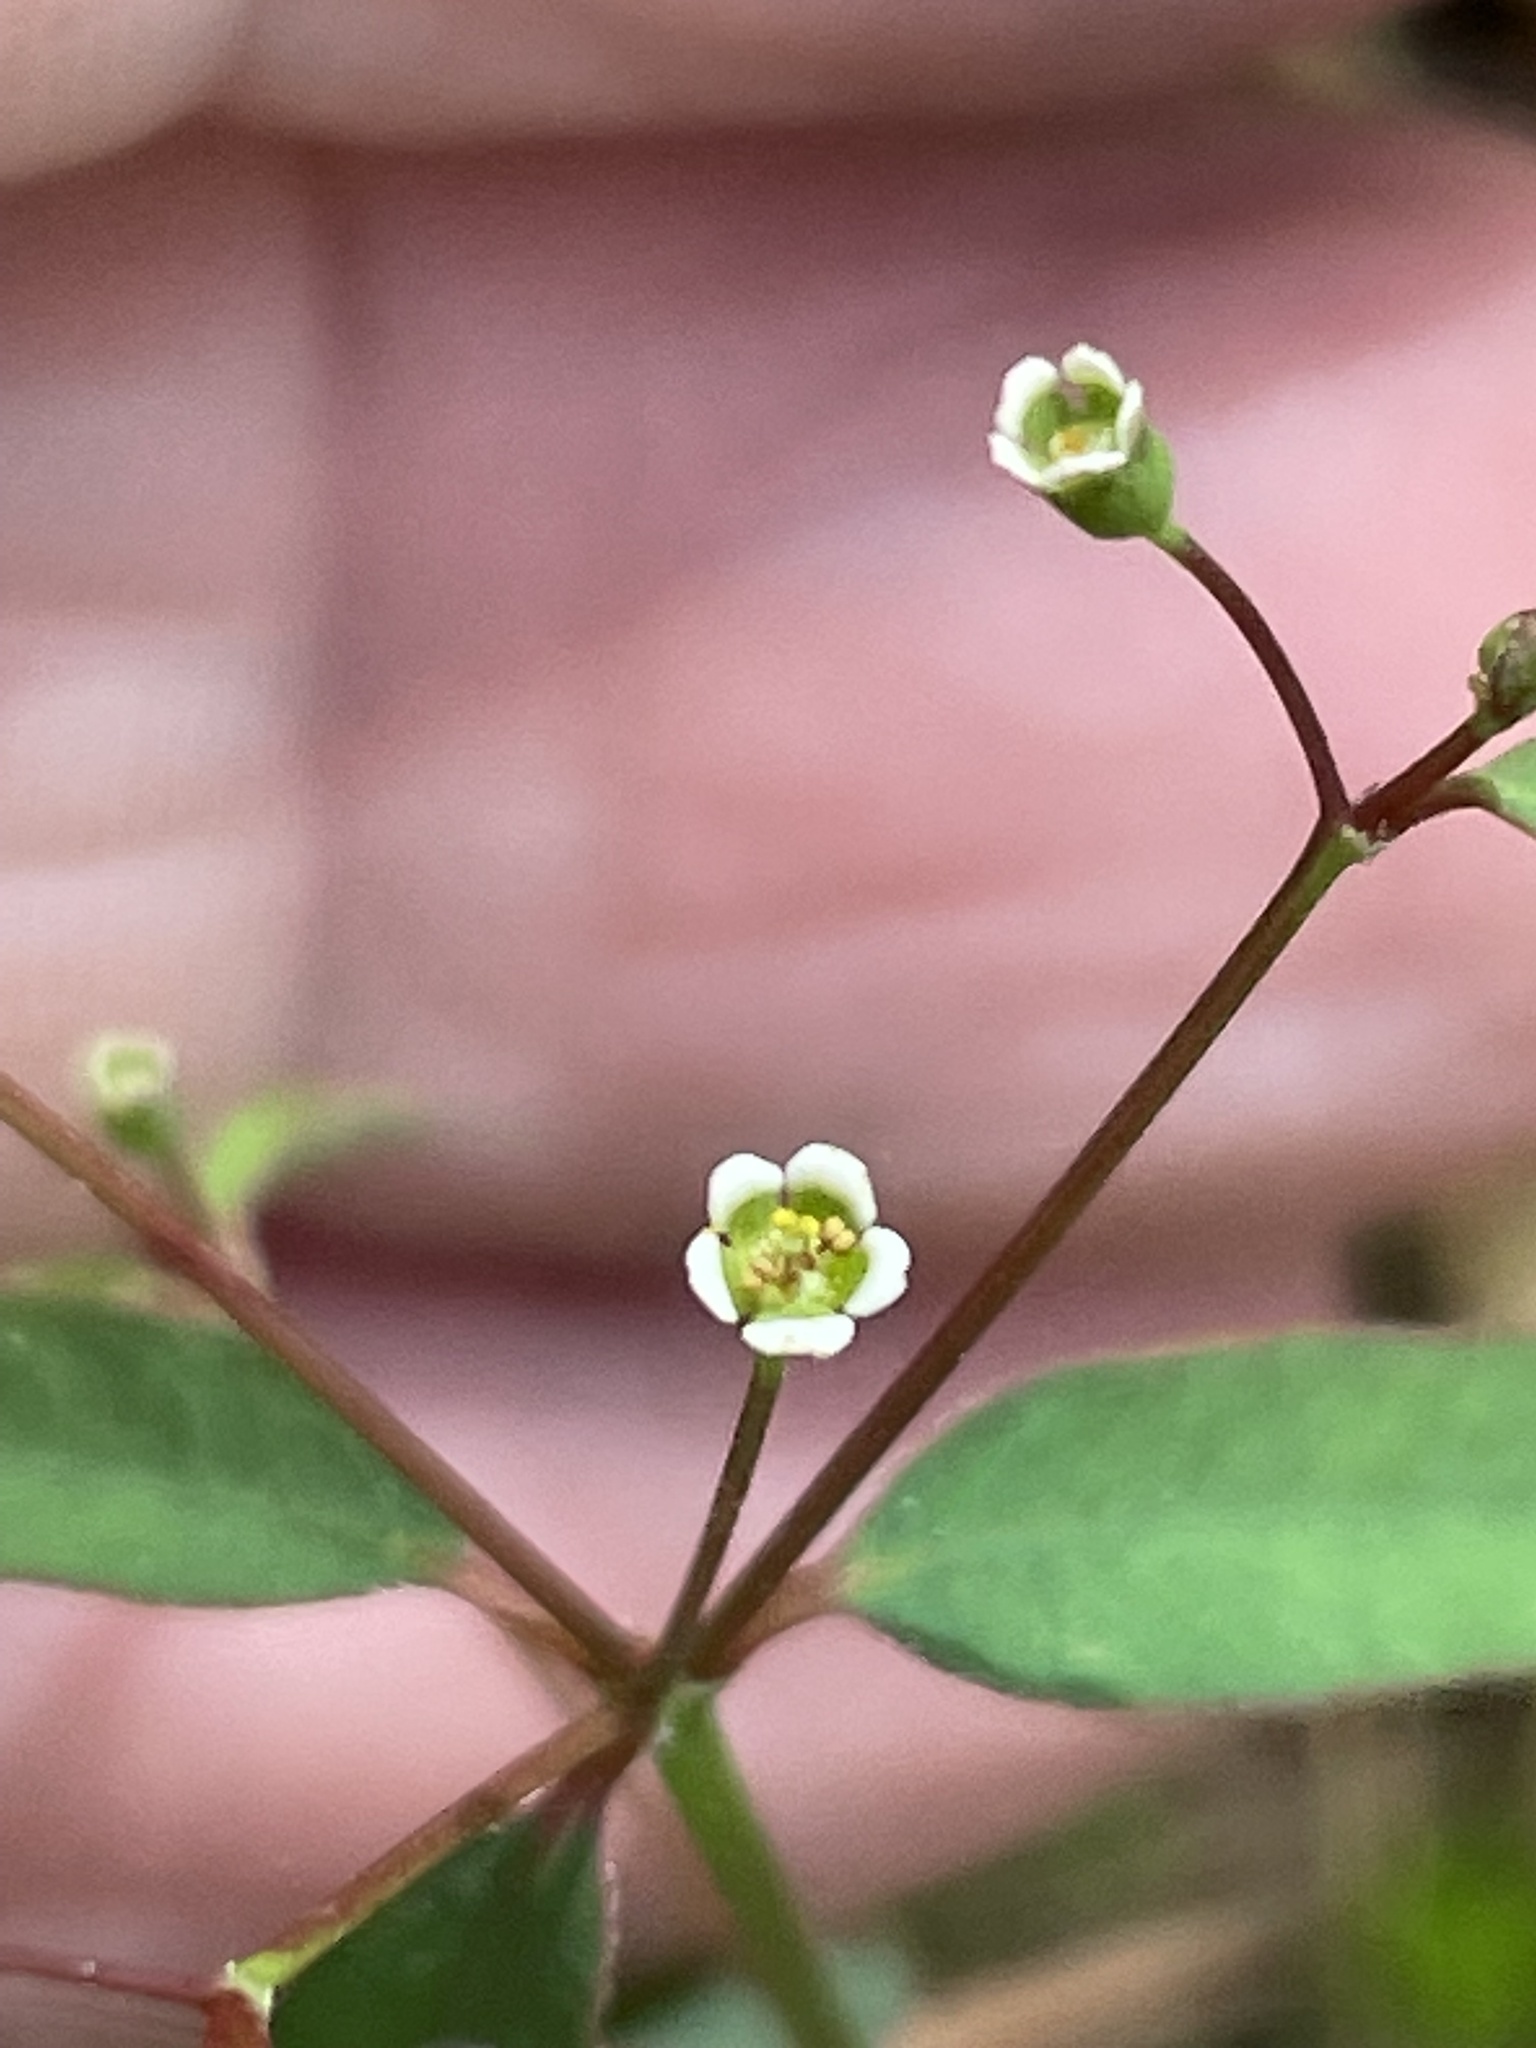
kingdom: Plantae
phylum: Tracheophyta
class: Magnoliopsida
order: Malpighiales
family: Euphorbiaceae
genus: Euphorbia
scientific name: Euphorbia curtisii
